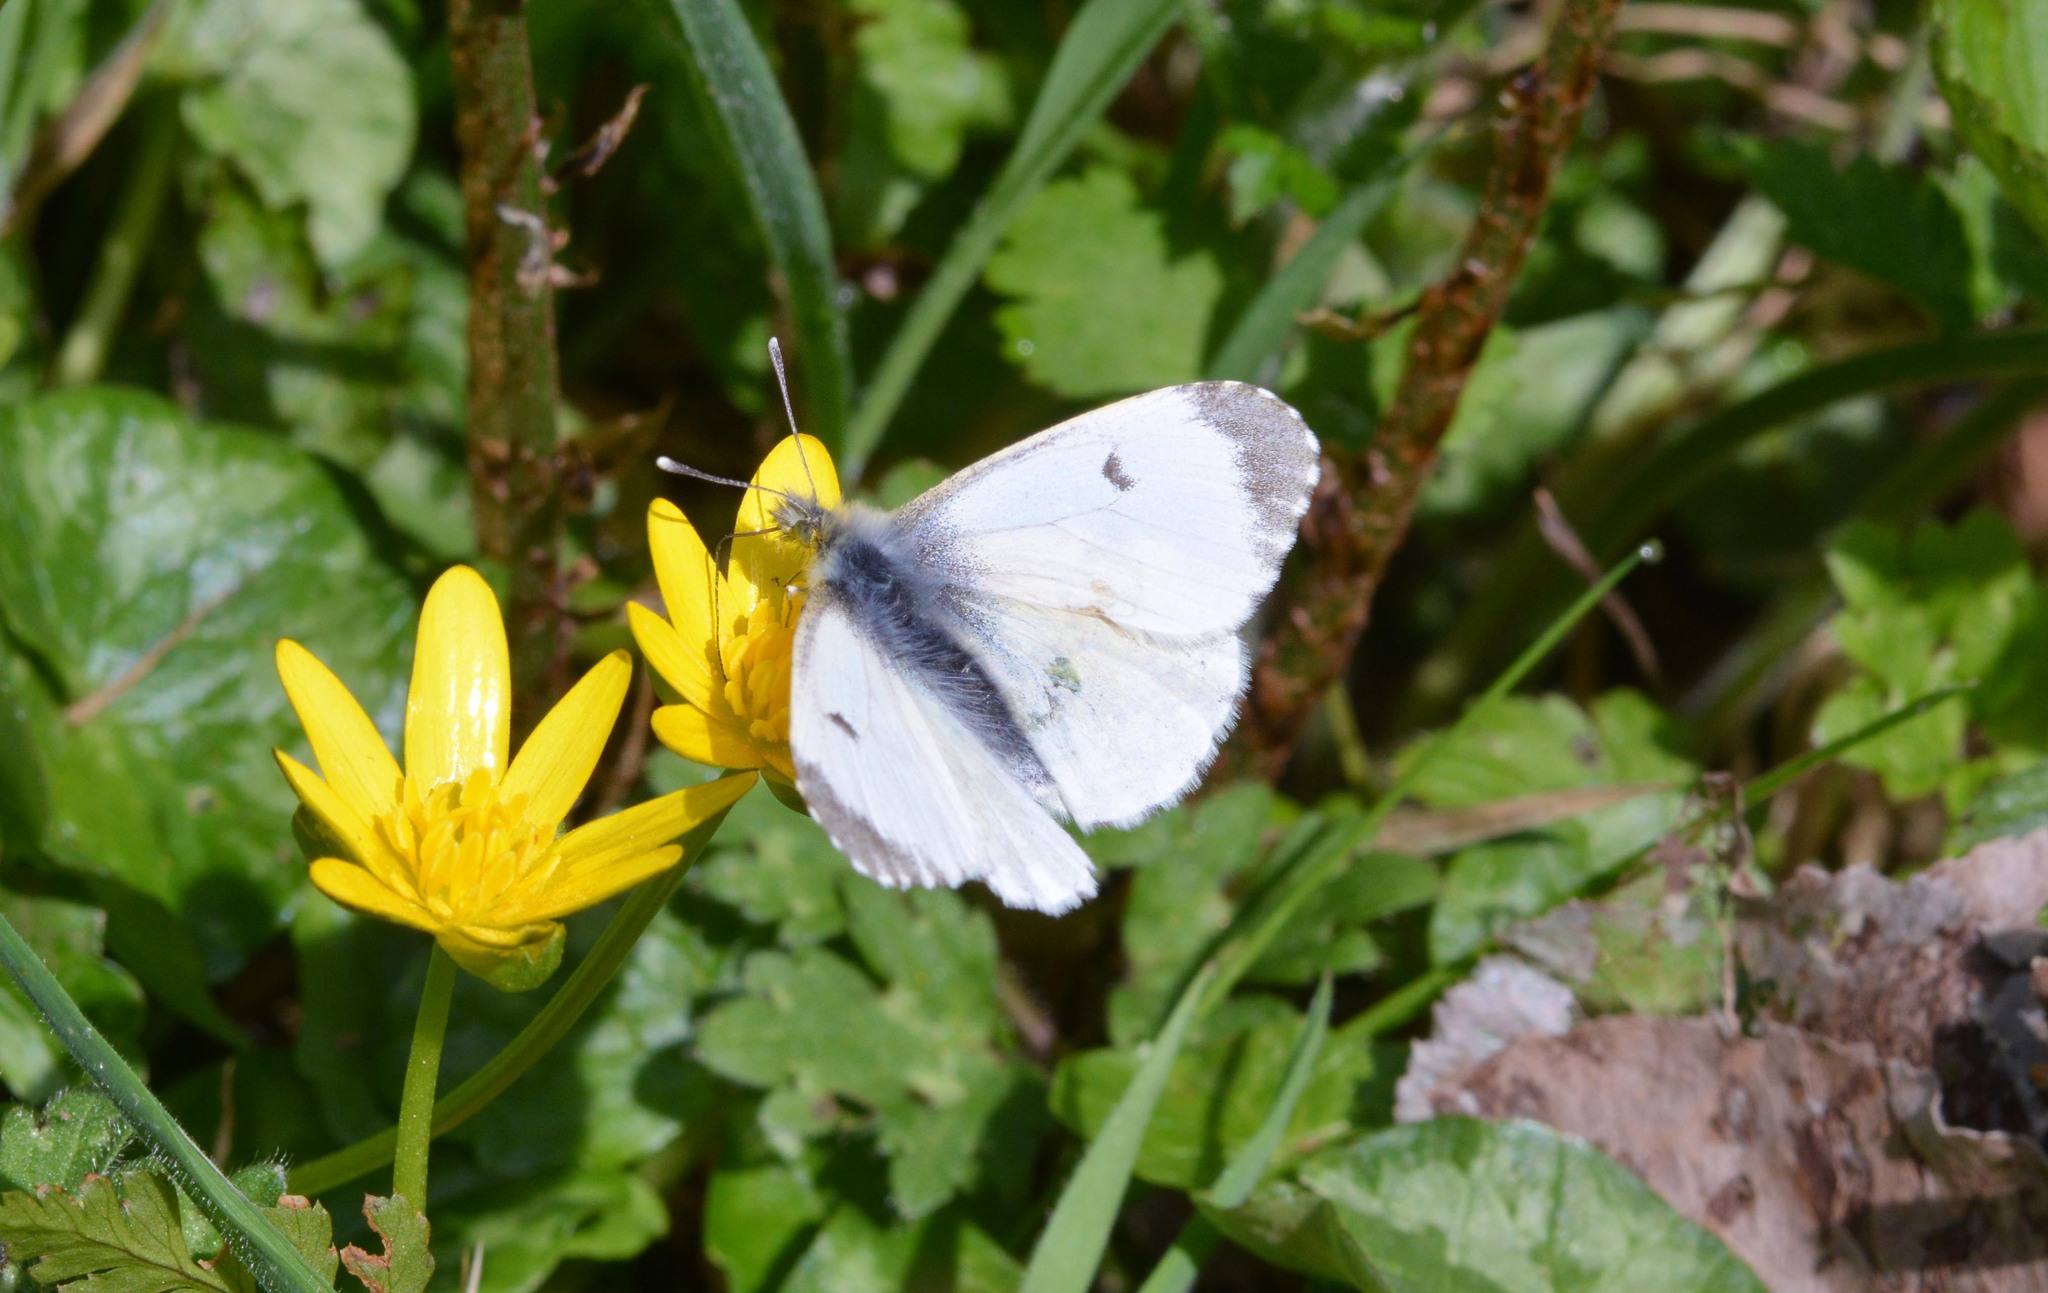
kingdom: Animalia
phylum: Arthropoda
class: Insecta
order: Lepidoptera
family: Pieridae
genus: Anthocharis
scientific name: Anthocharis cardamines
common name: Orange-tip
